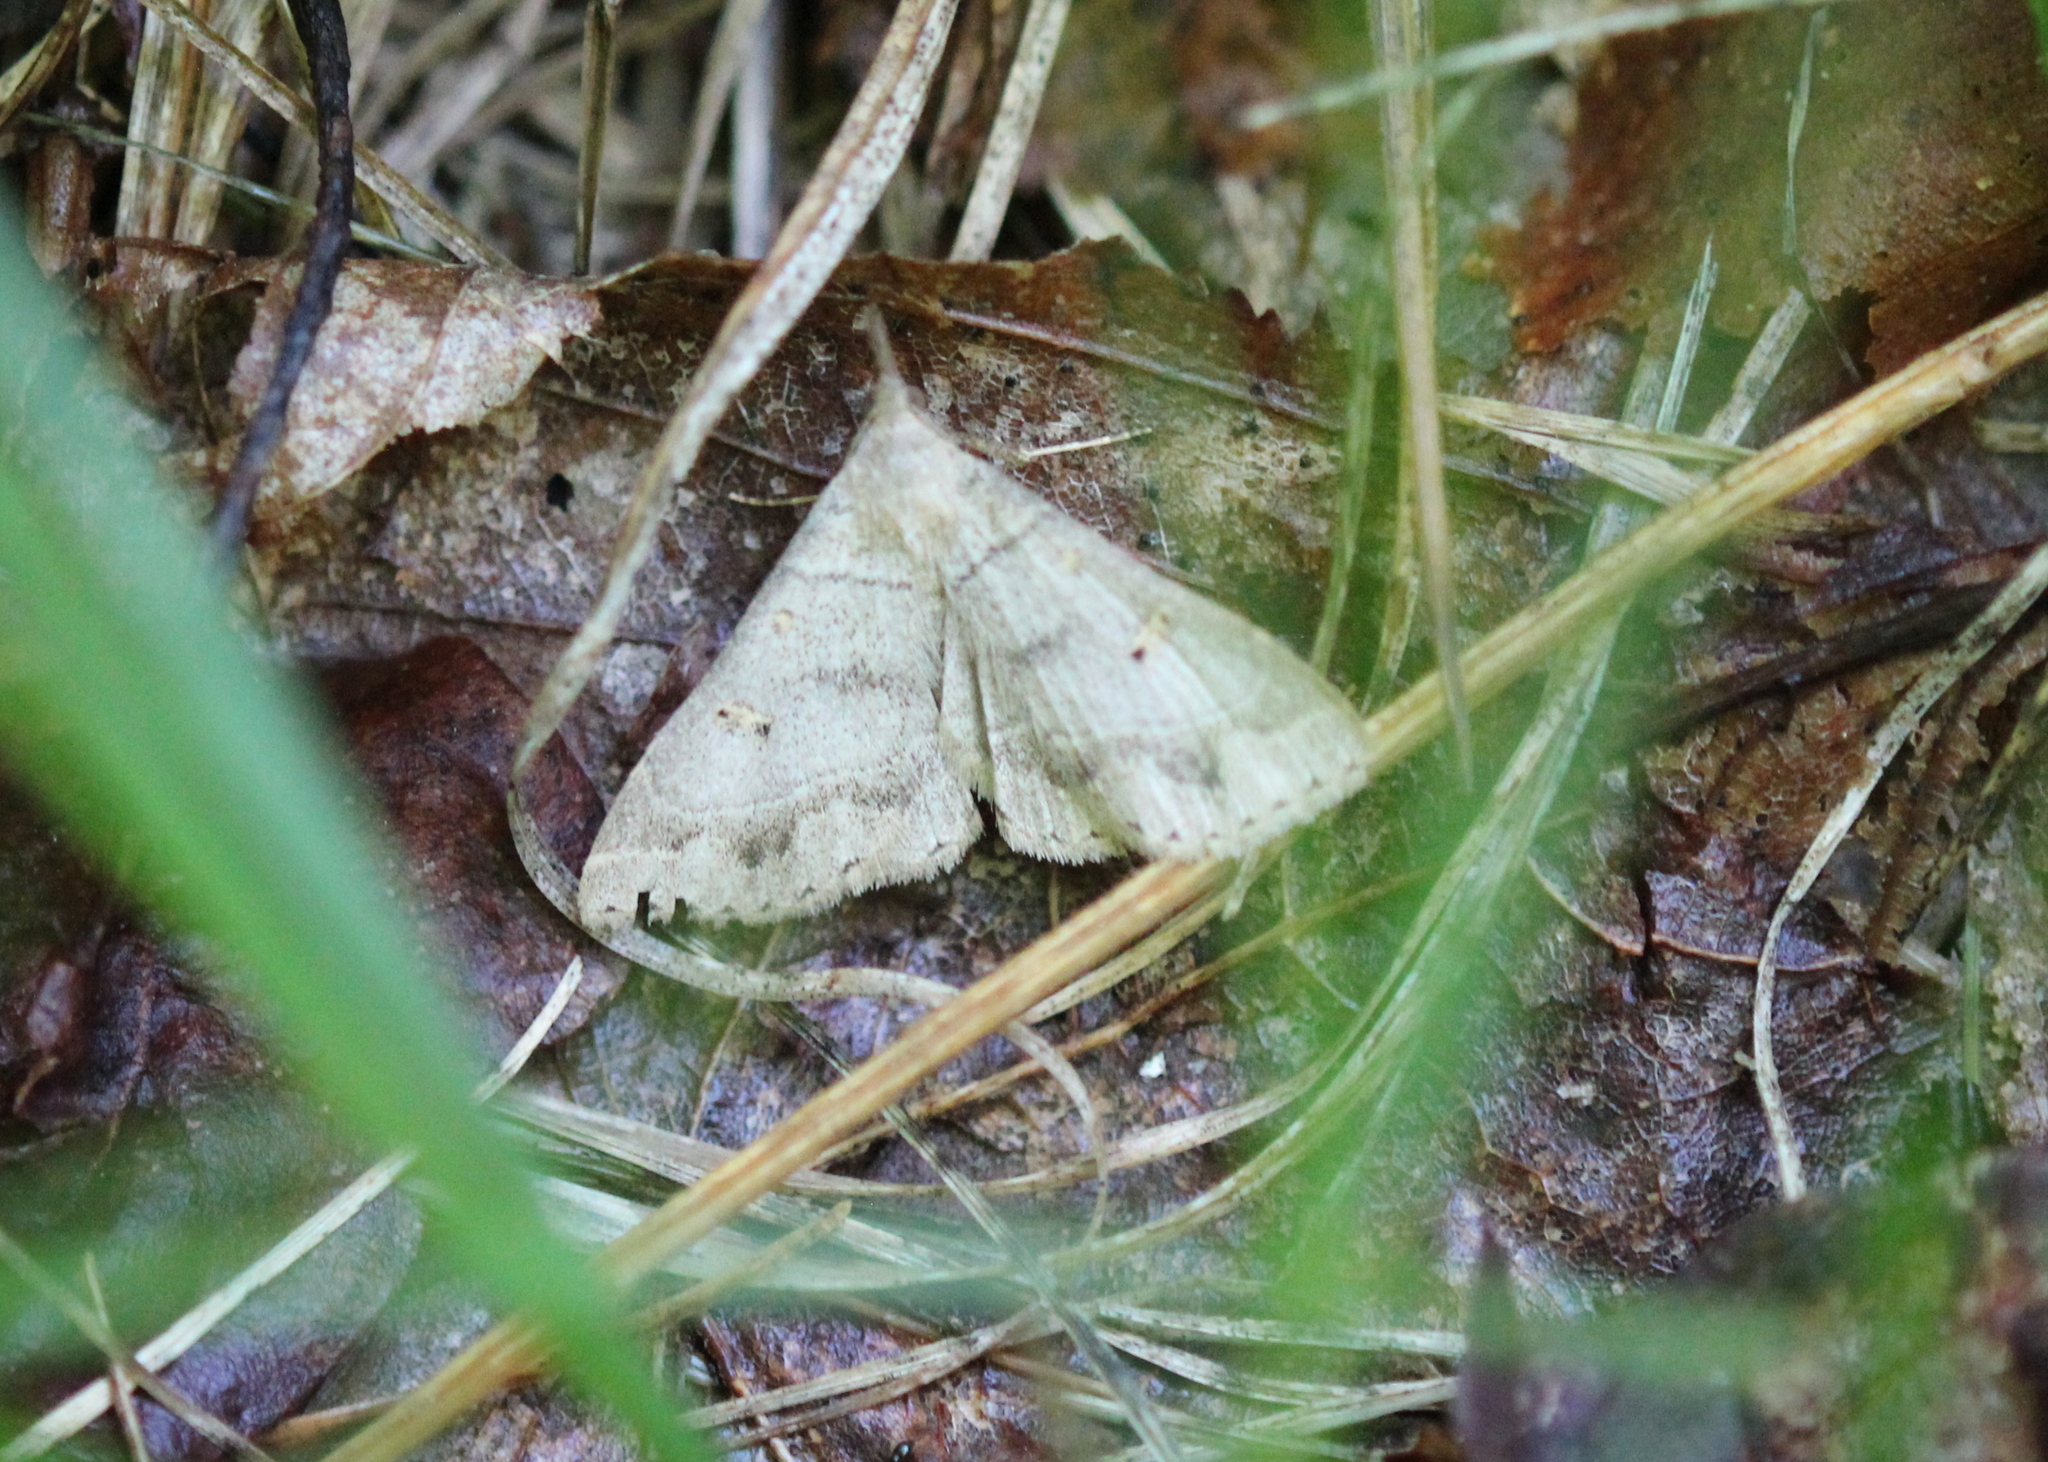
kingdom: Animalia
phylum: Arthropoda
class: Insecta
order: Lepidoptera
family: Erebidae
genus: Renia
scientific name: Renia flavipunctalis
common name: Yellow-spotted renia moth
